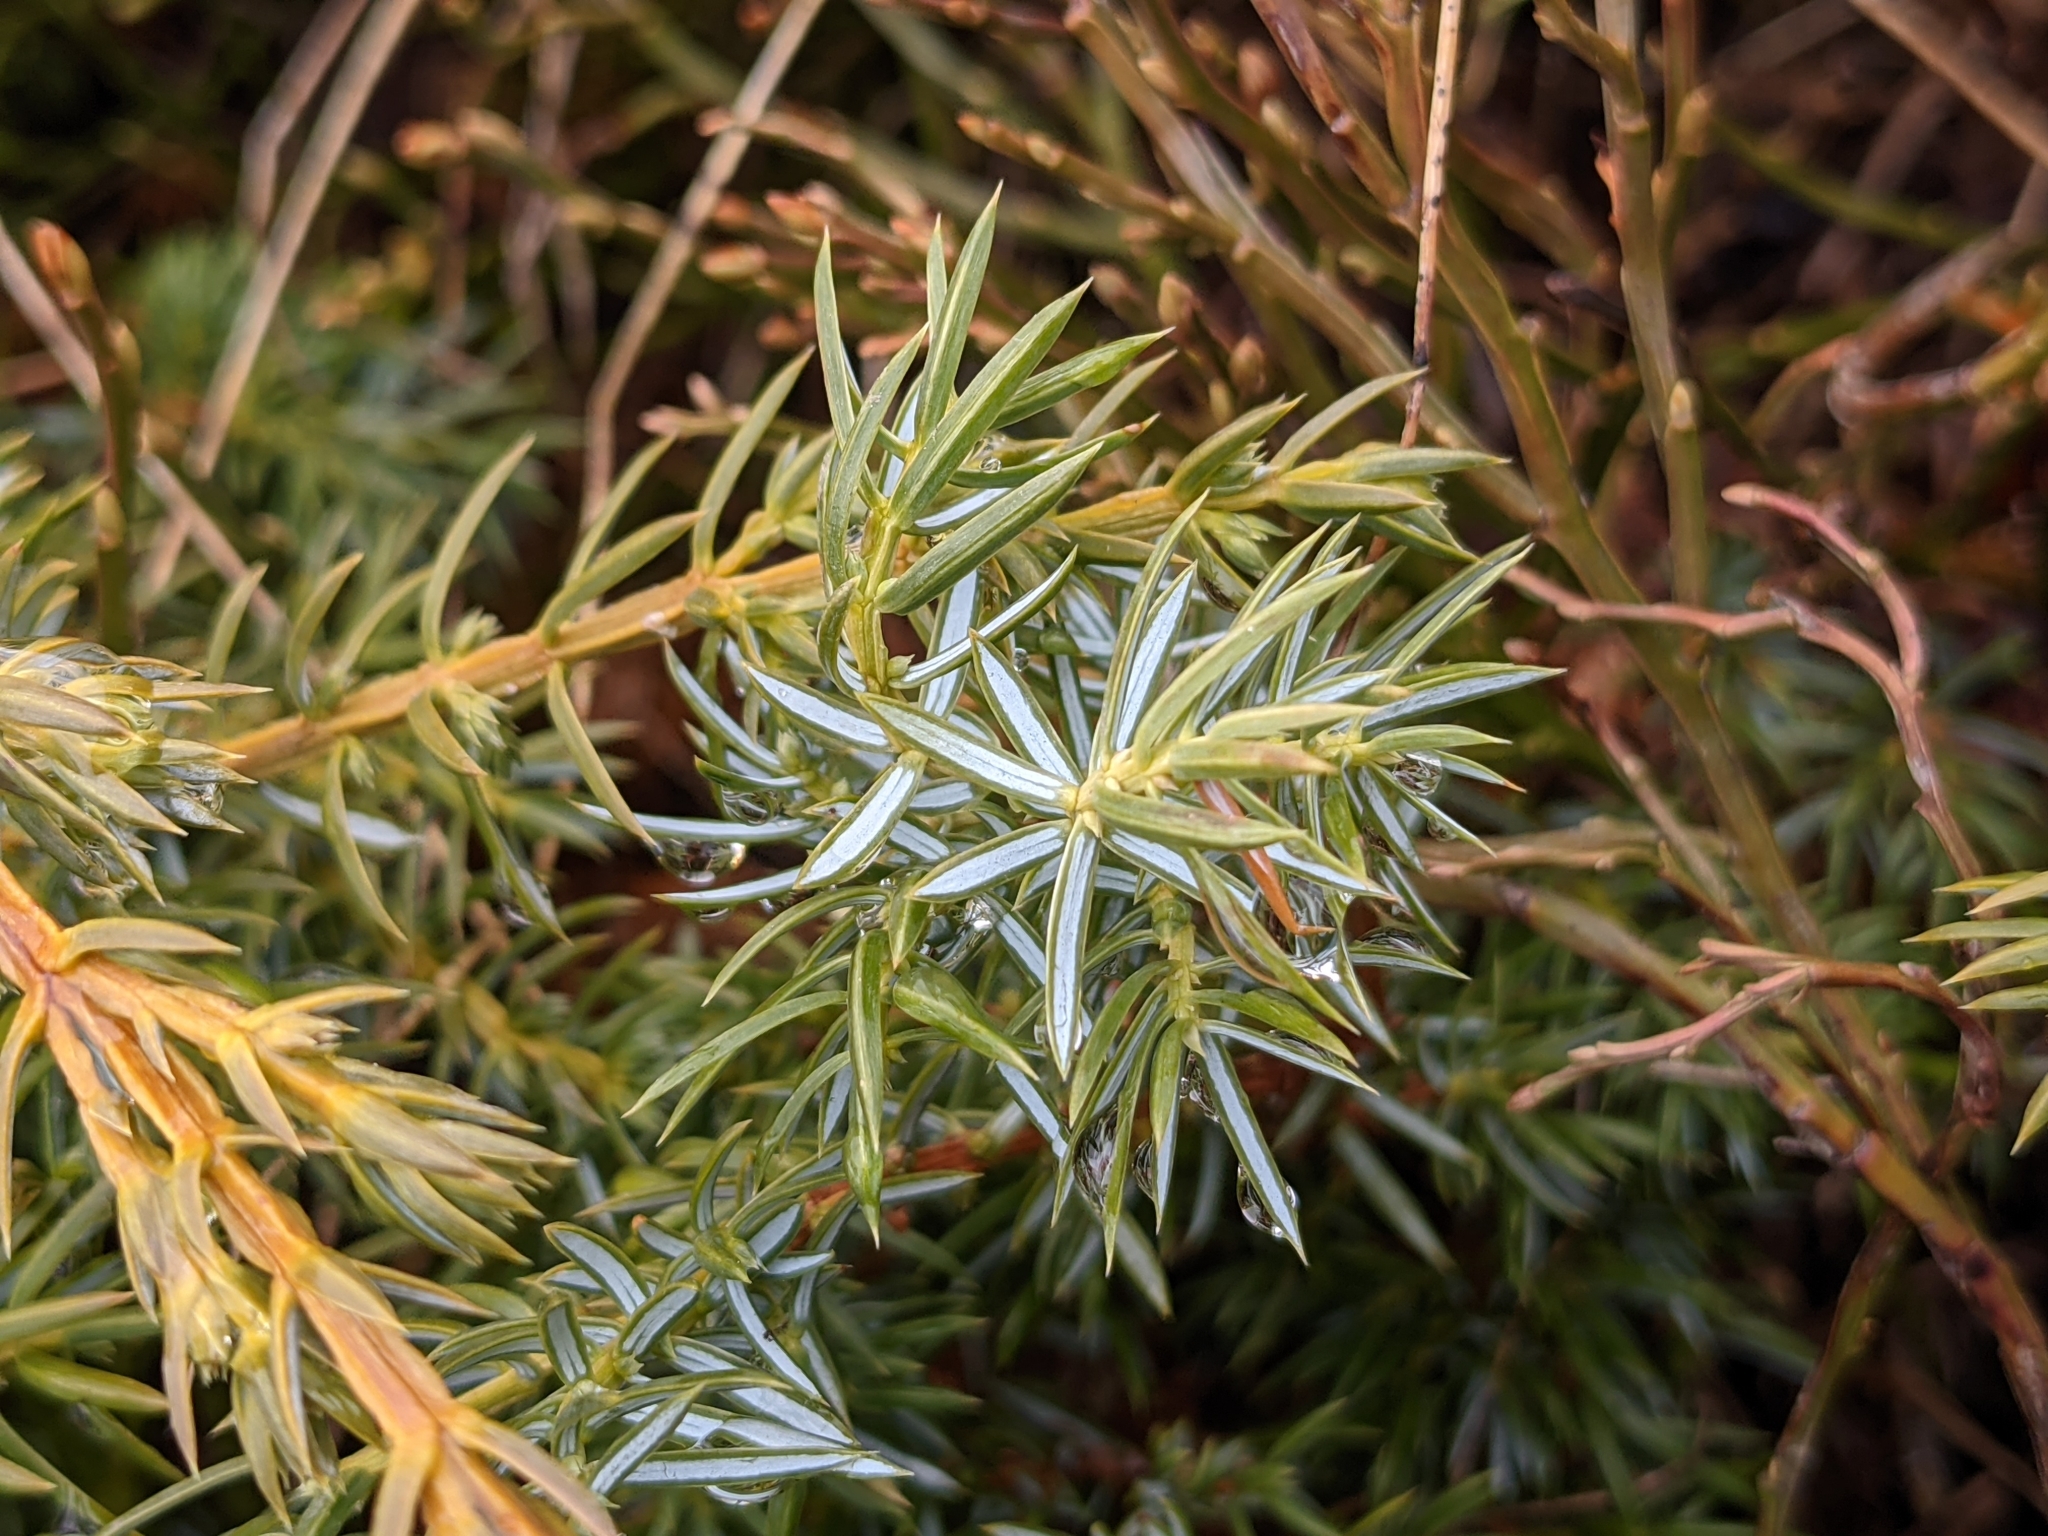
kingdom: Plantae
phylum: Tracheophyta
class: Pinopsida
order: Pinales
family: Cupressaceae
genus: Juniperus
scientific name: Juniperus communis
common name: Common juniper
